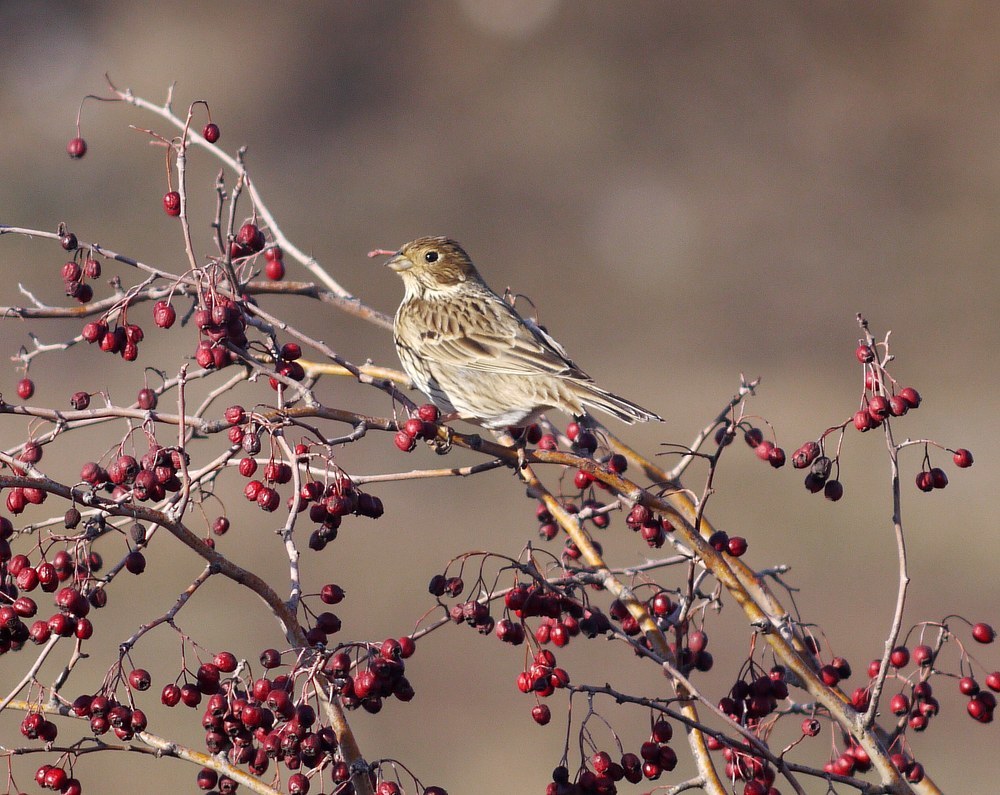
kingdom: Animalia
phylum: Chordata
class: Aves
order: Passeriformes
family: Emberizidae
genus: Emberiza
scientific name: Emberiza calandra
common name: Corn bunting
